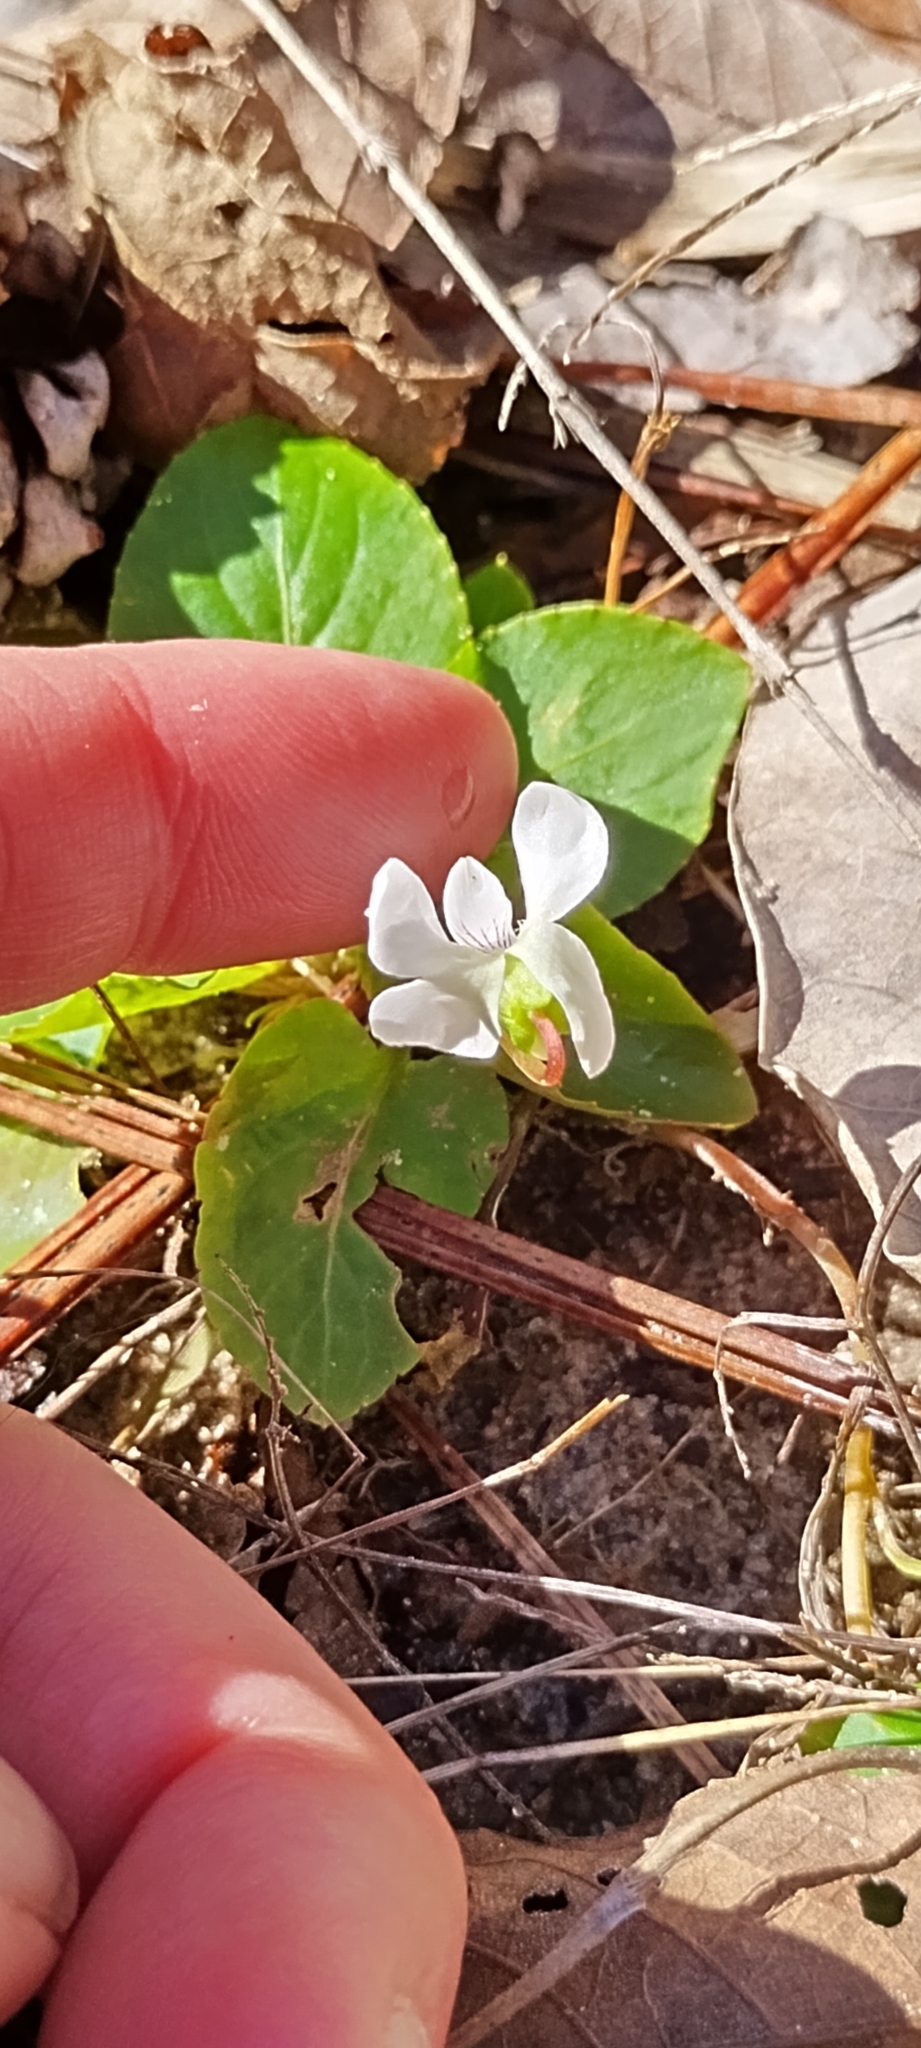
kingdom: Plantae
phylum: Tracheophyta
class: Magnoliopsida
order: Malpighiales
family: Violaceae
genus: Viola
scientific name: Viola primulifolia
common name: Primrose-leaf violet
